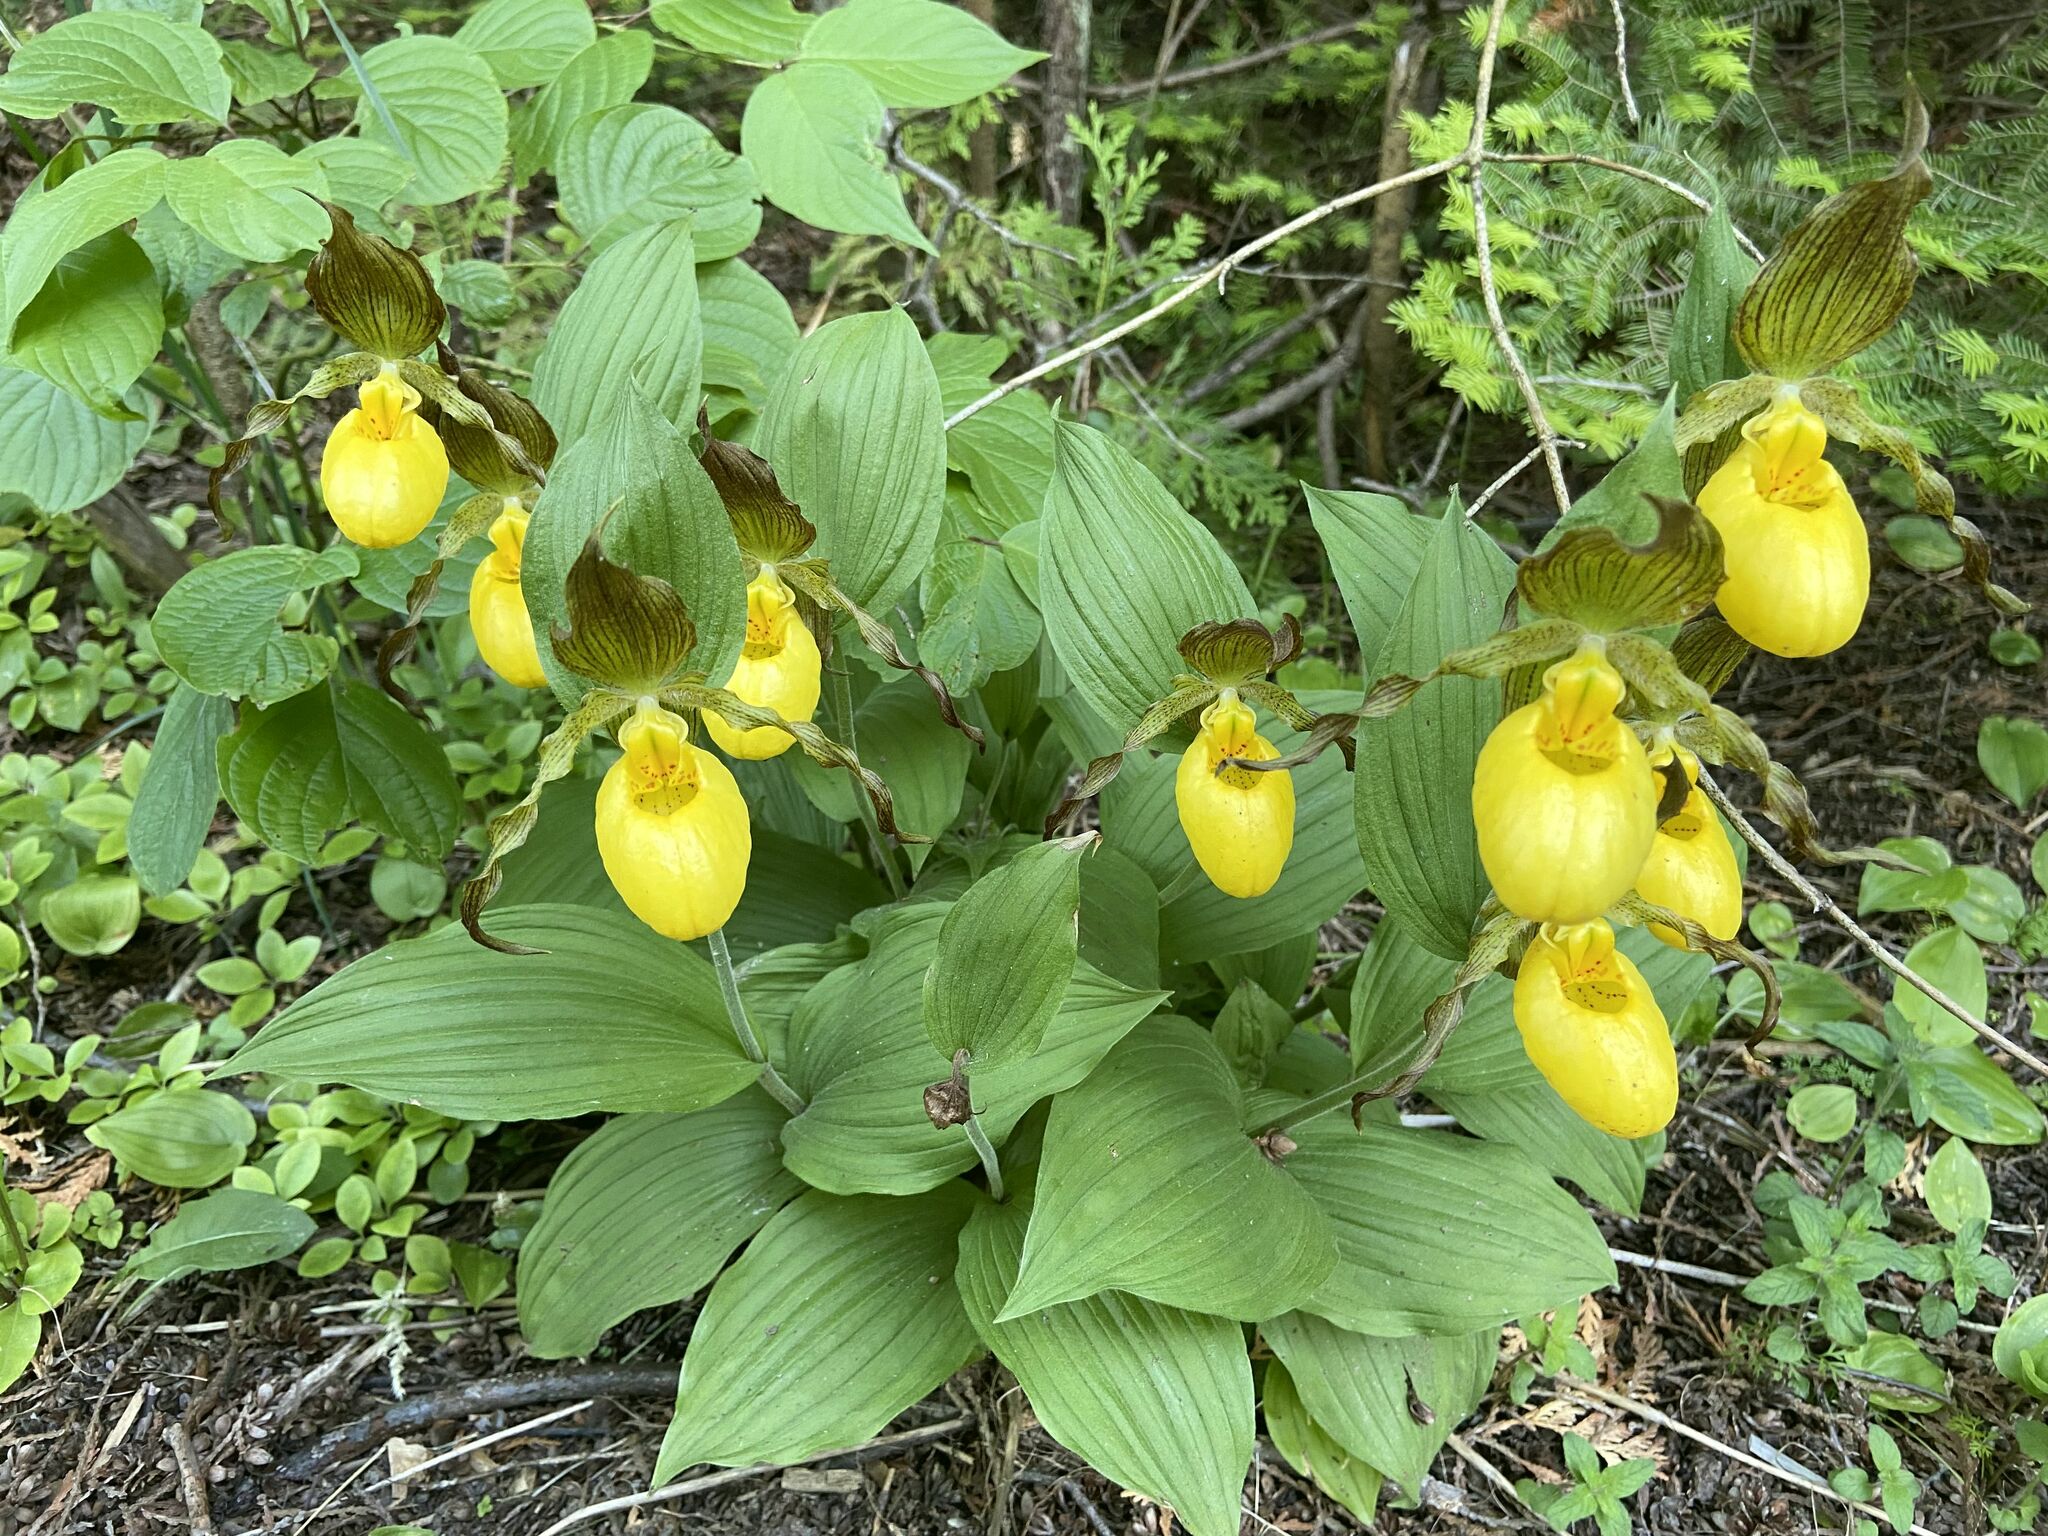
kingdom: Plantae
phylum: Tracheophyta
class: Liliopsida
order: Asparagales
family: Orchidaceae
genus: Cypripedium
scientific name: Cypripedium parviflorum
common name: American yellow lady's-slipper
